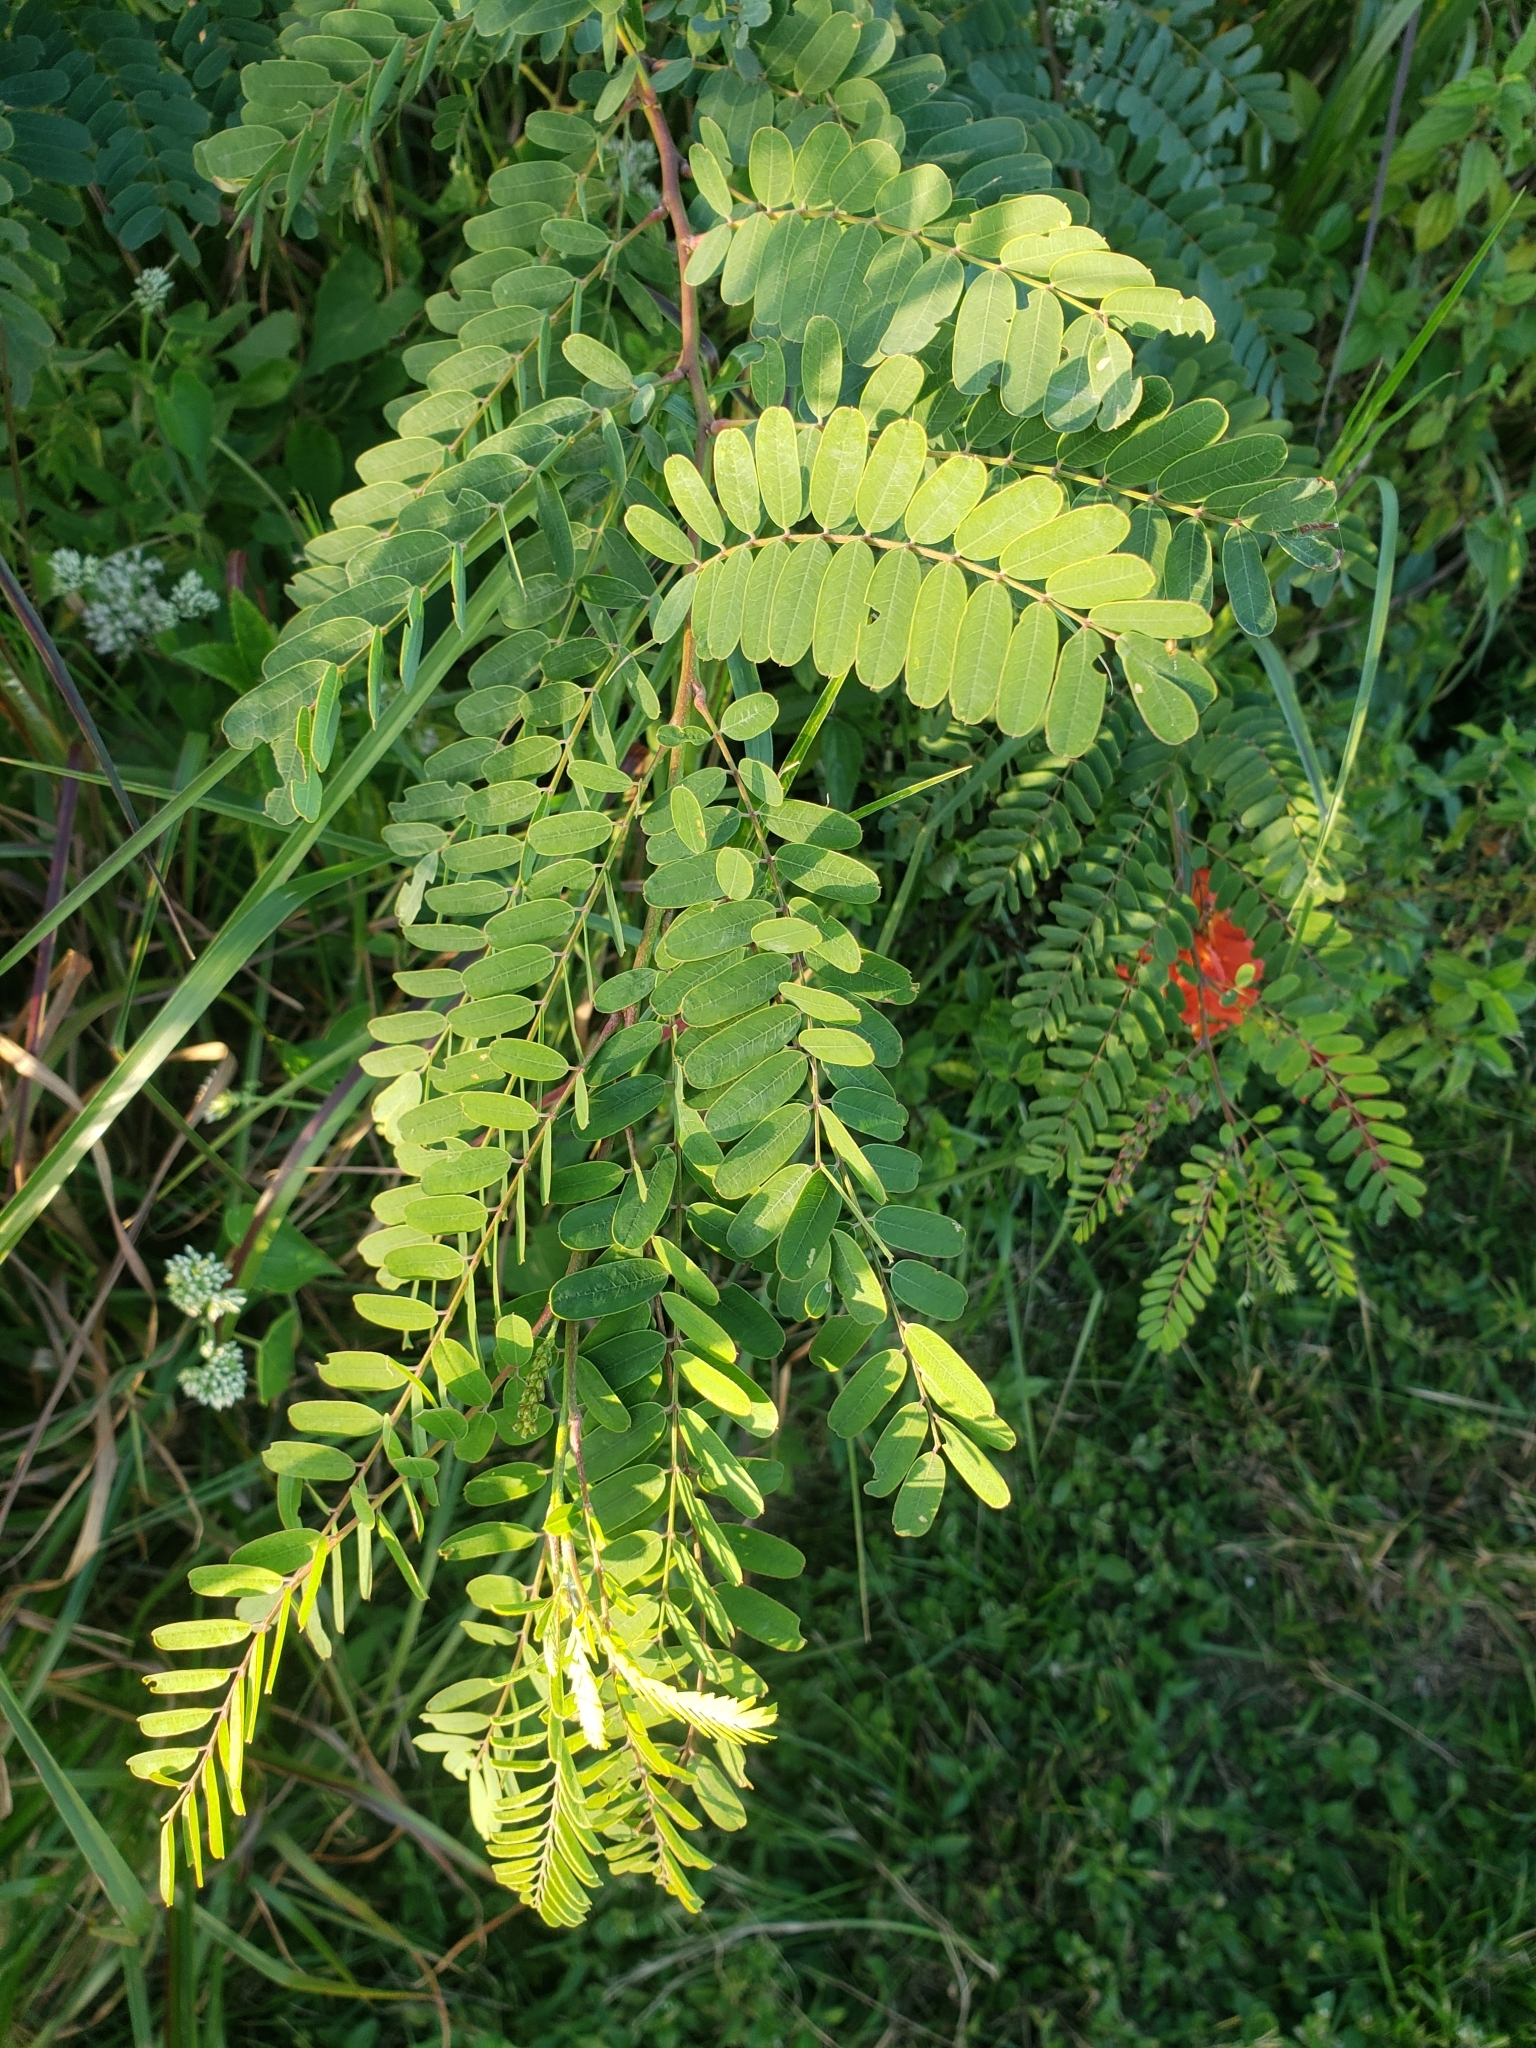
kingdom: Plantae
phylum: Tracheophyta
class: Magnoliopsida
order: Fabales
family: Fabaceae
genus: Sesbania
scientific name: Sesbania punicea
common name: Rattlebox
